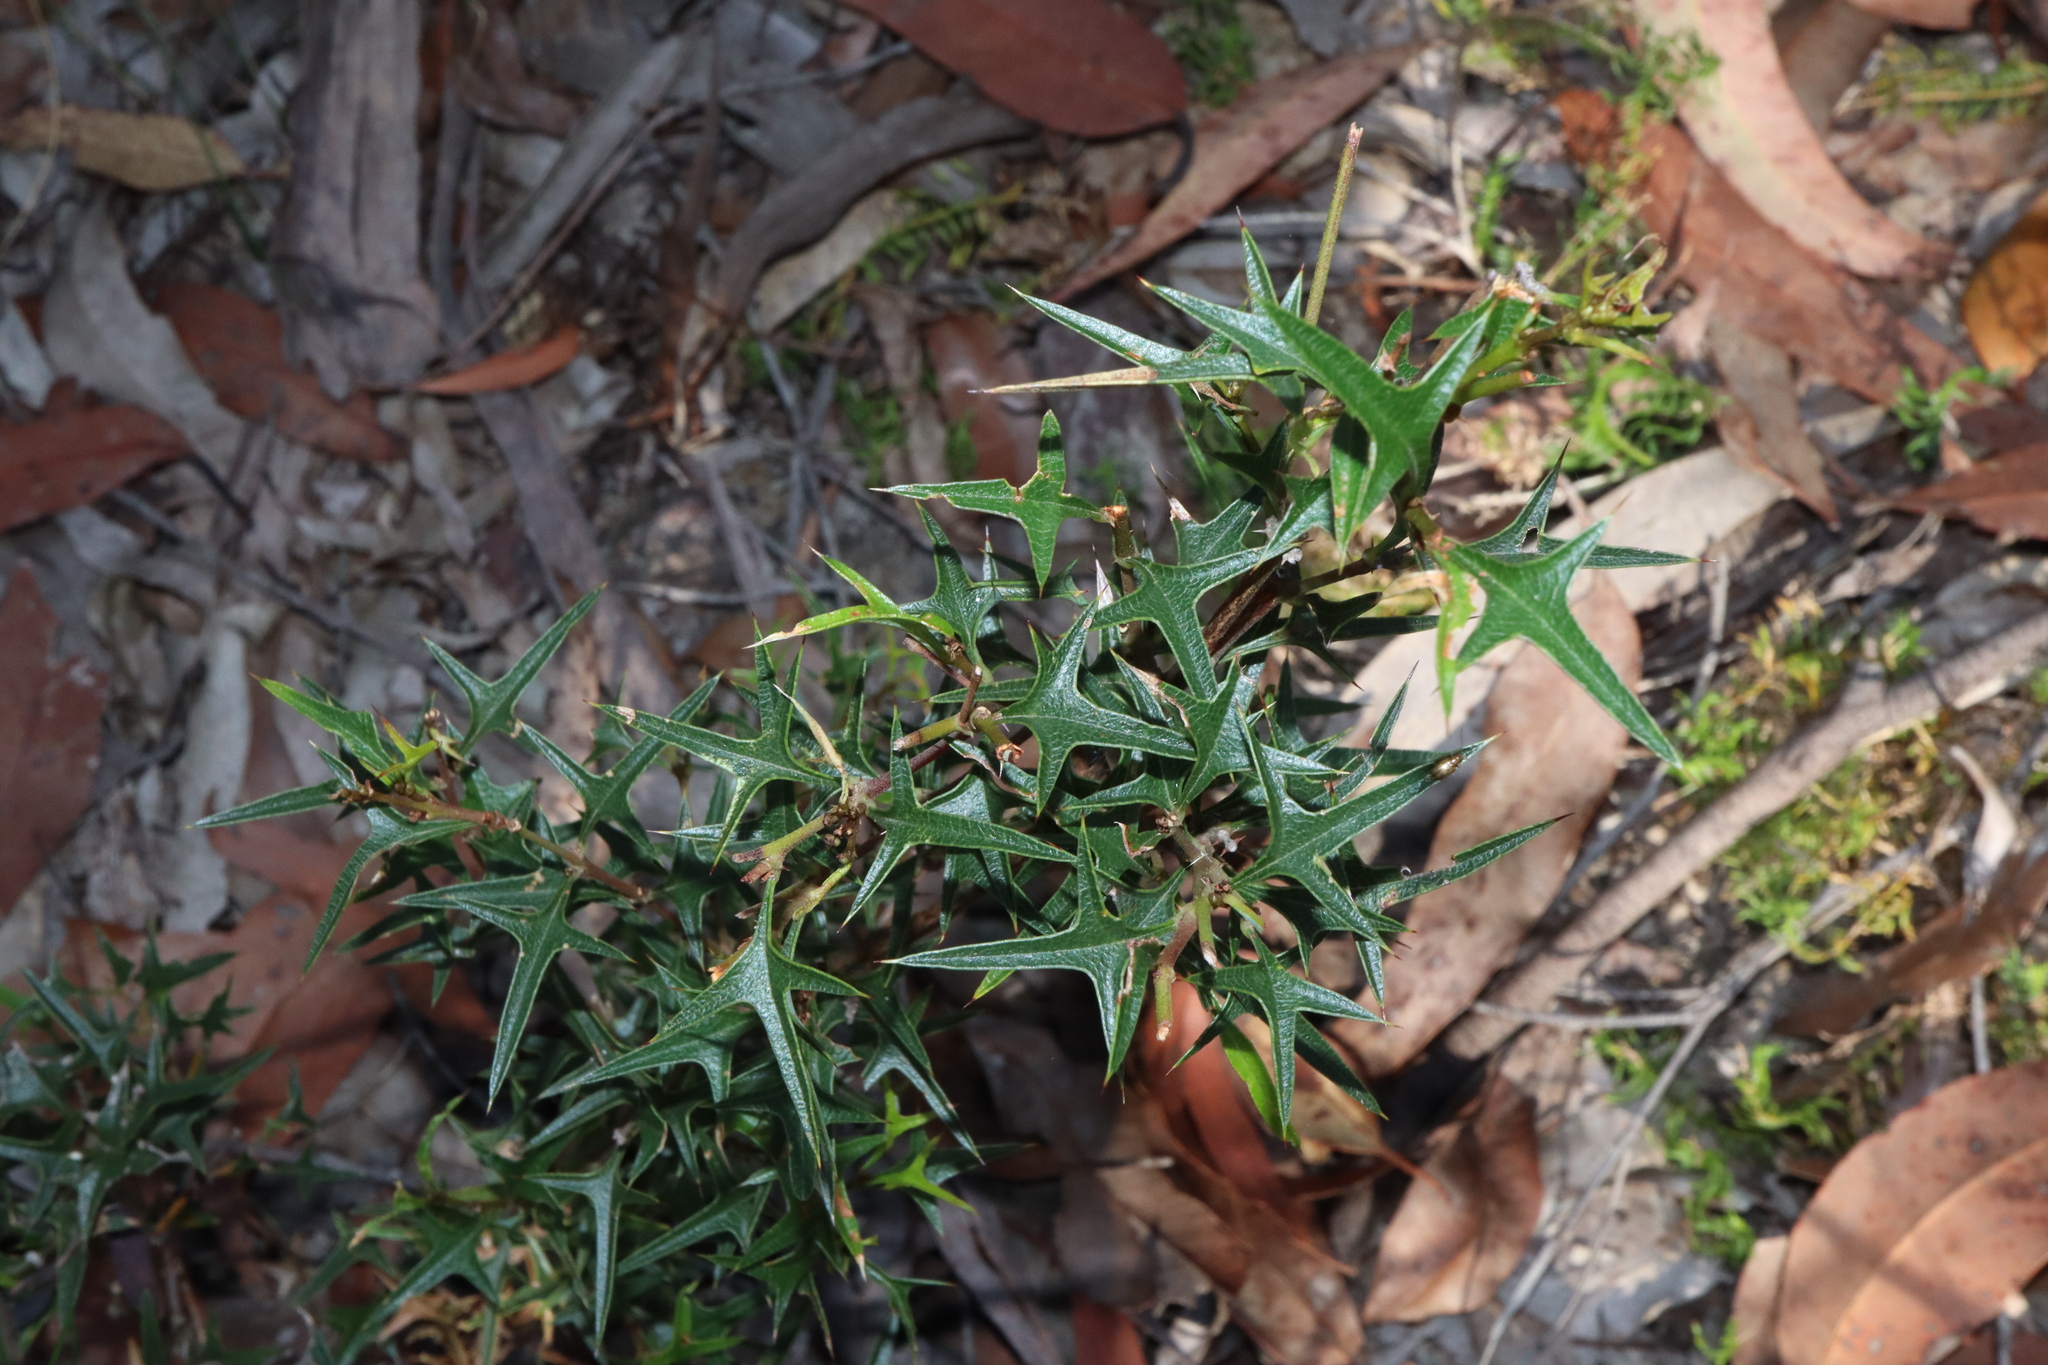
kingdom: Plantae
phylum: Tracheophyta
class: Magnoliopsida
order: Fabales
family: Fabaceae
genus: Podolobium
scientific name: Podolobium ilicifolium
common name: Native holly
